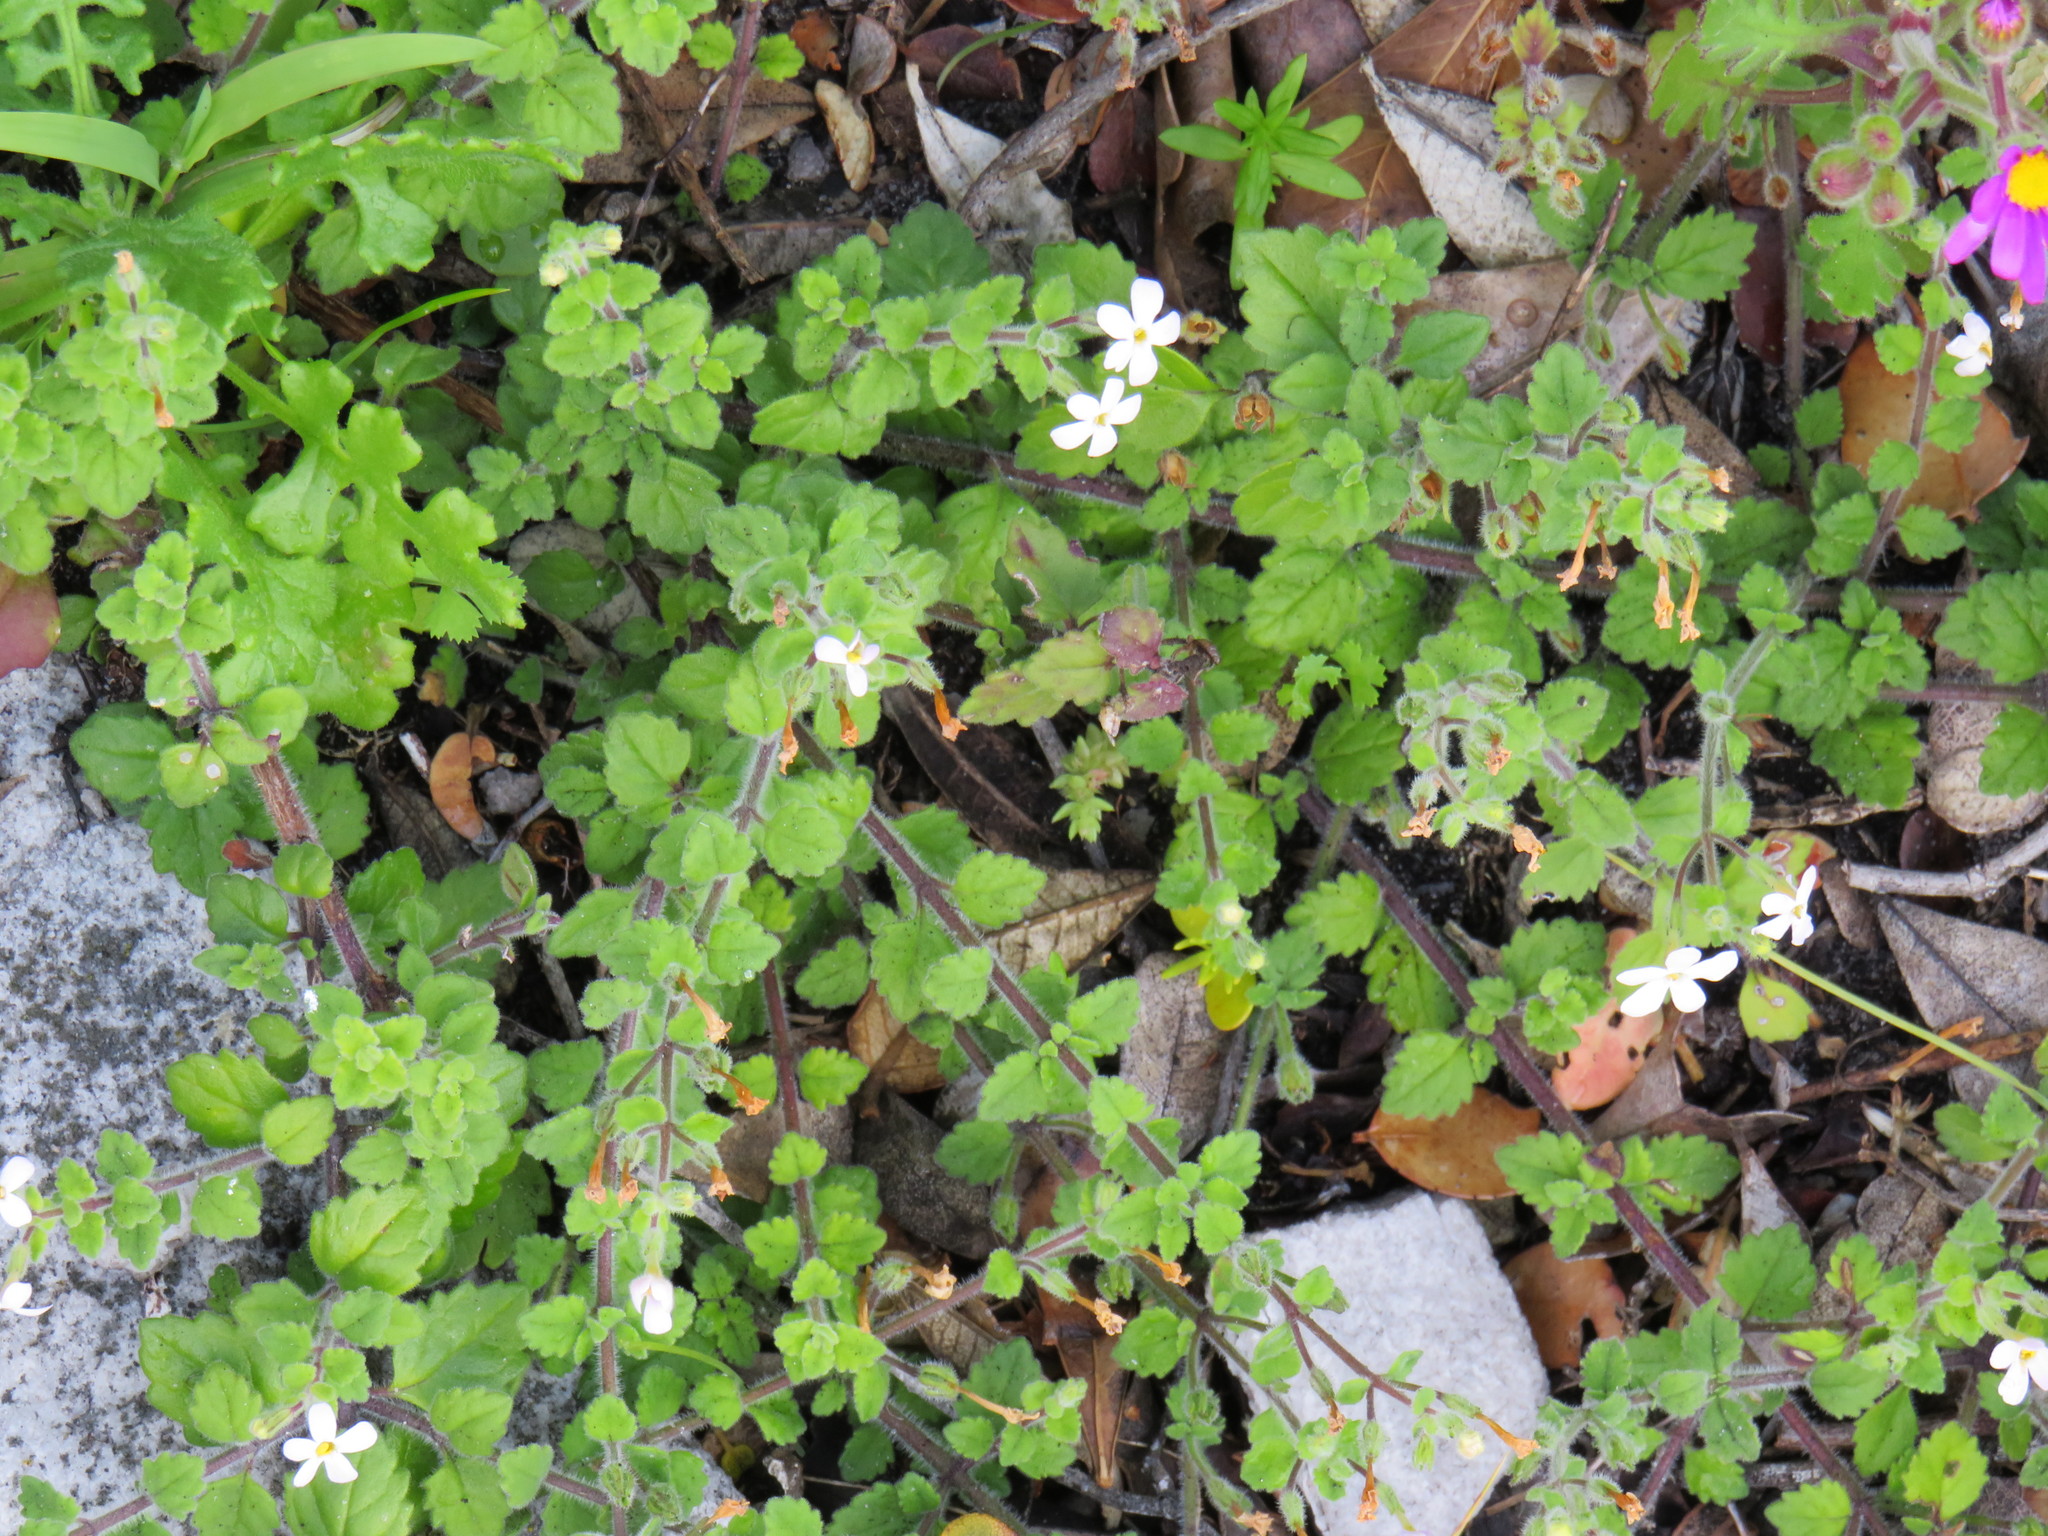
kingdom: Plantae
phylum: Tracheophyta
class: Magnoliopsida
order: Lamiales
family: Scrophulariaceae
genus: Chaenostoma
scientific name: Chaenostoma hispidum
